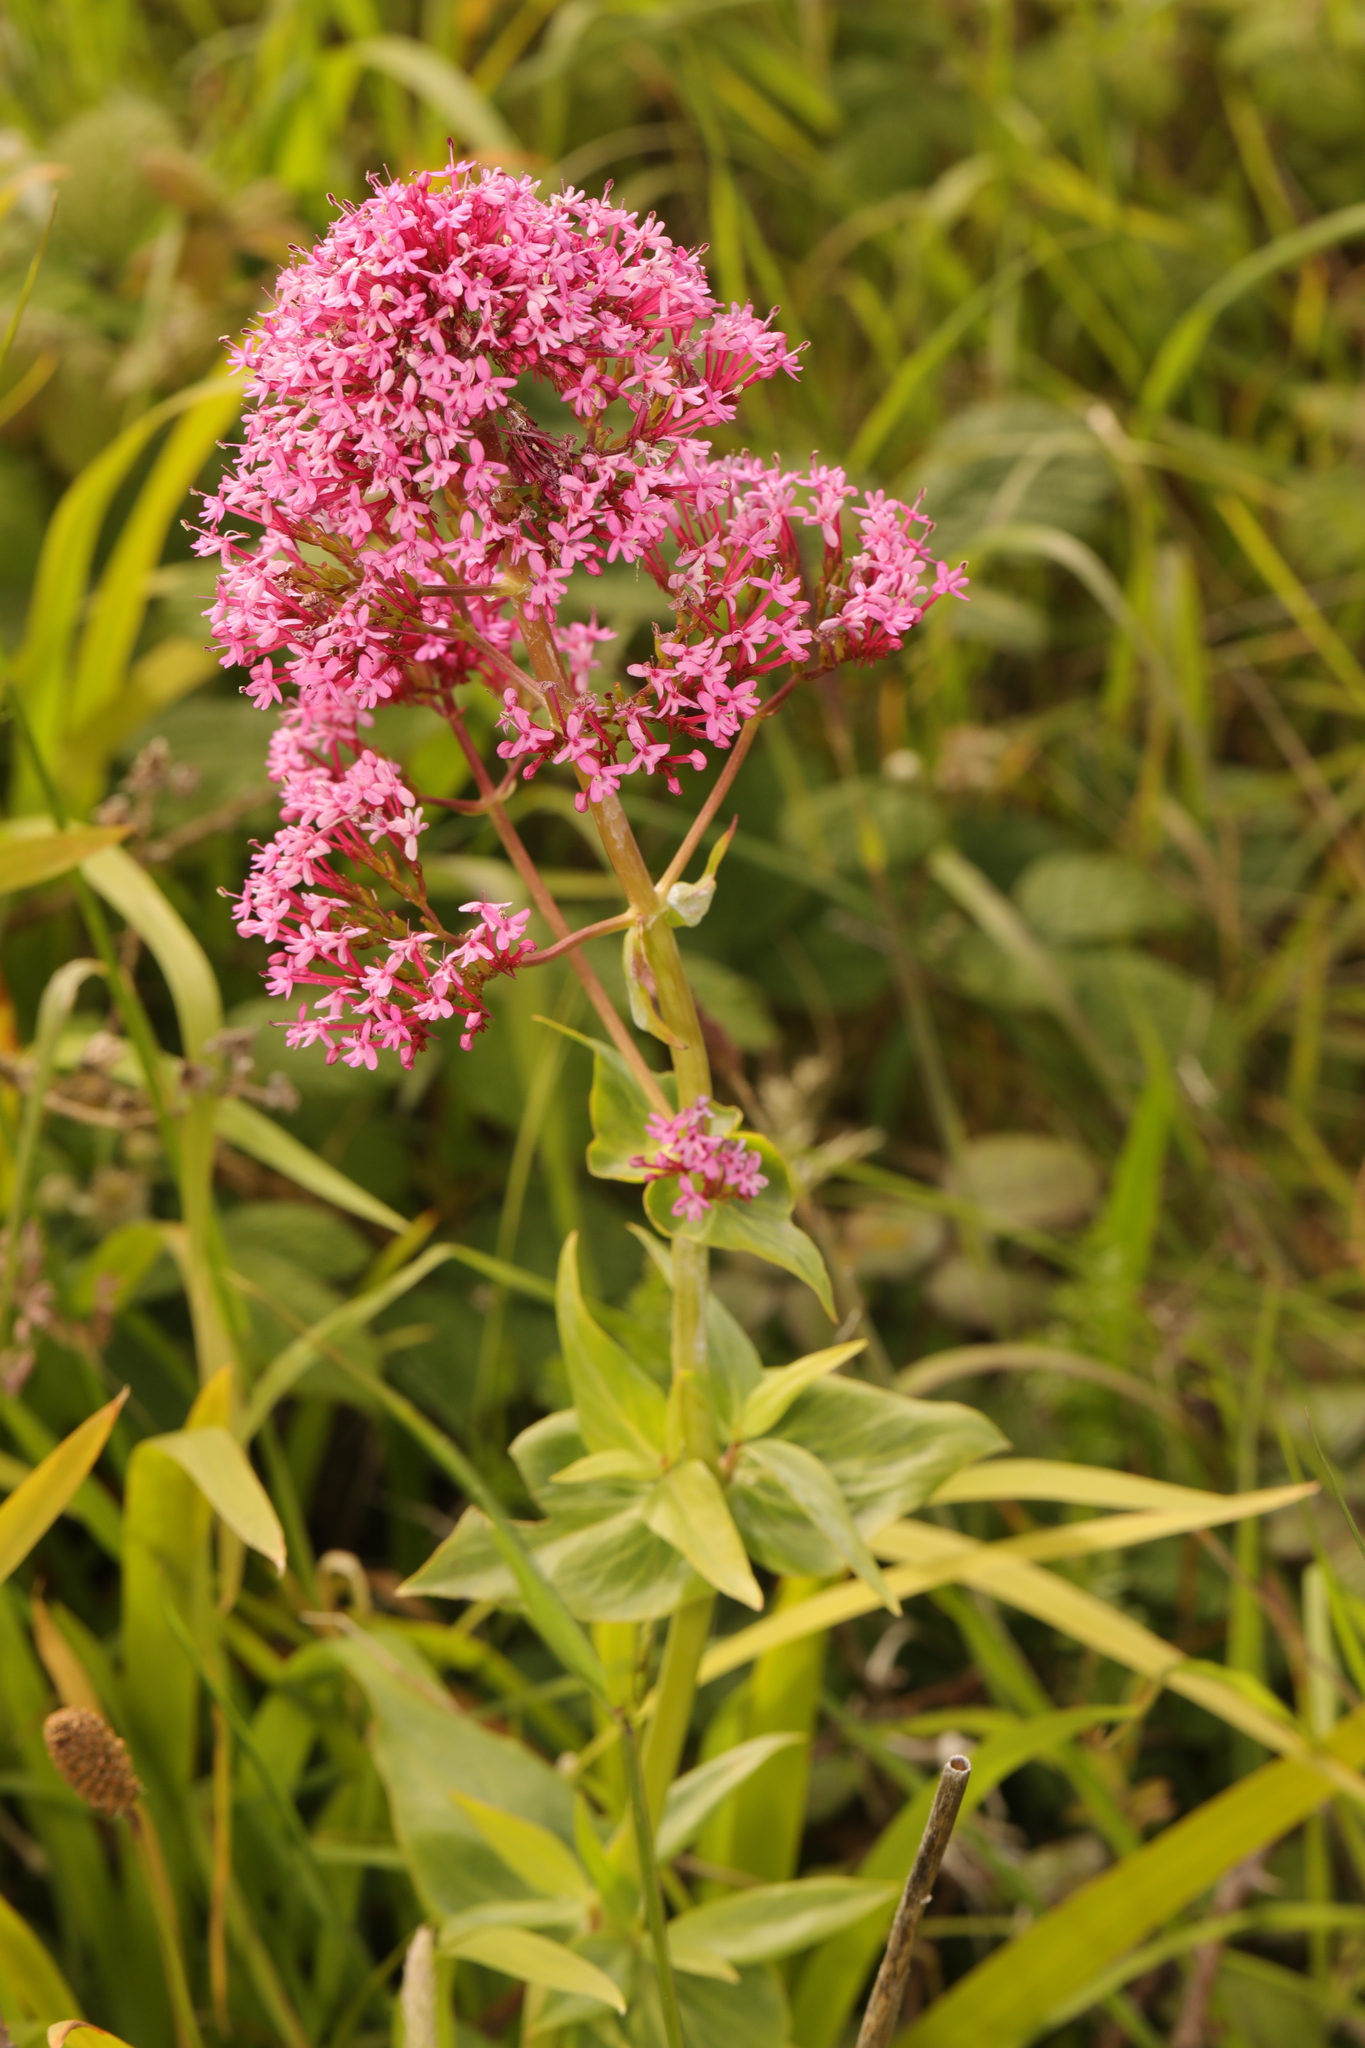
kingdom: Plantae
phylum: Tracheophyta
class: Magnoliopsida
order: Dipsacales
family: Caprifoliaceae
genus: Centranthus
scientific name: Centranthus ruber
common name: Red valerian
